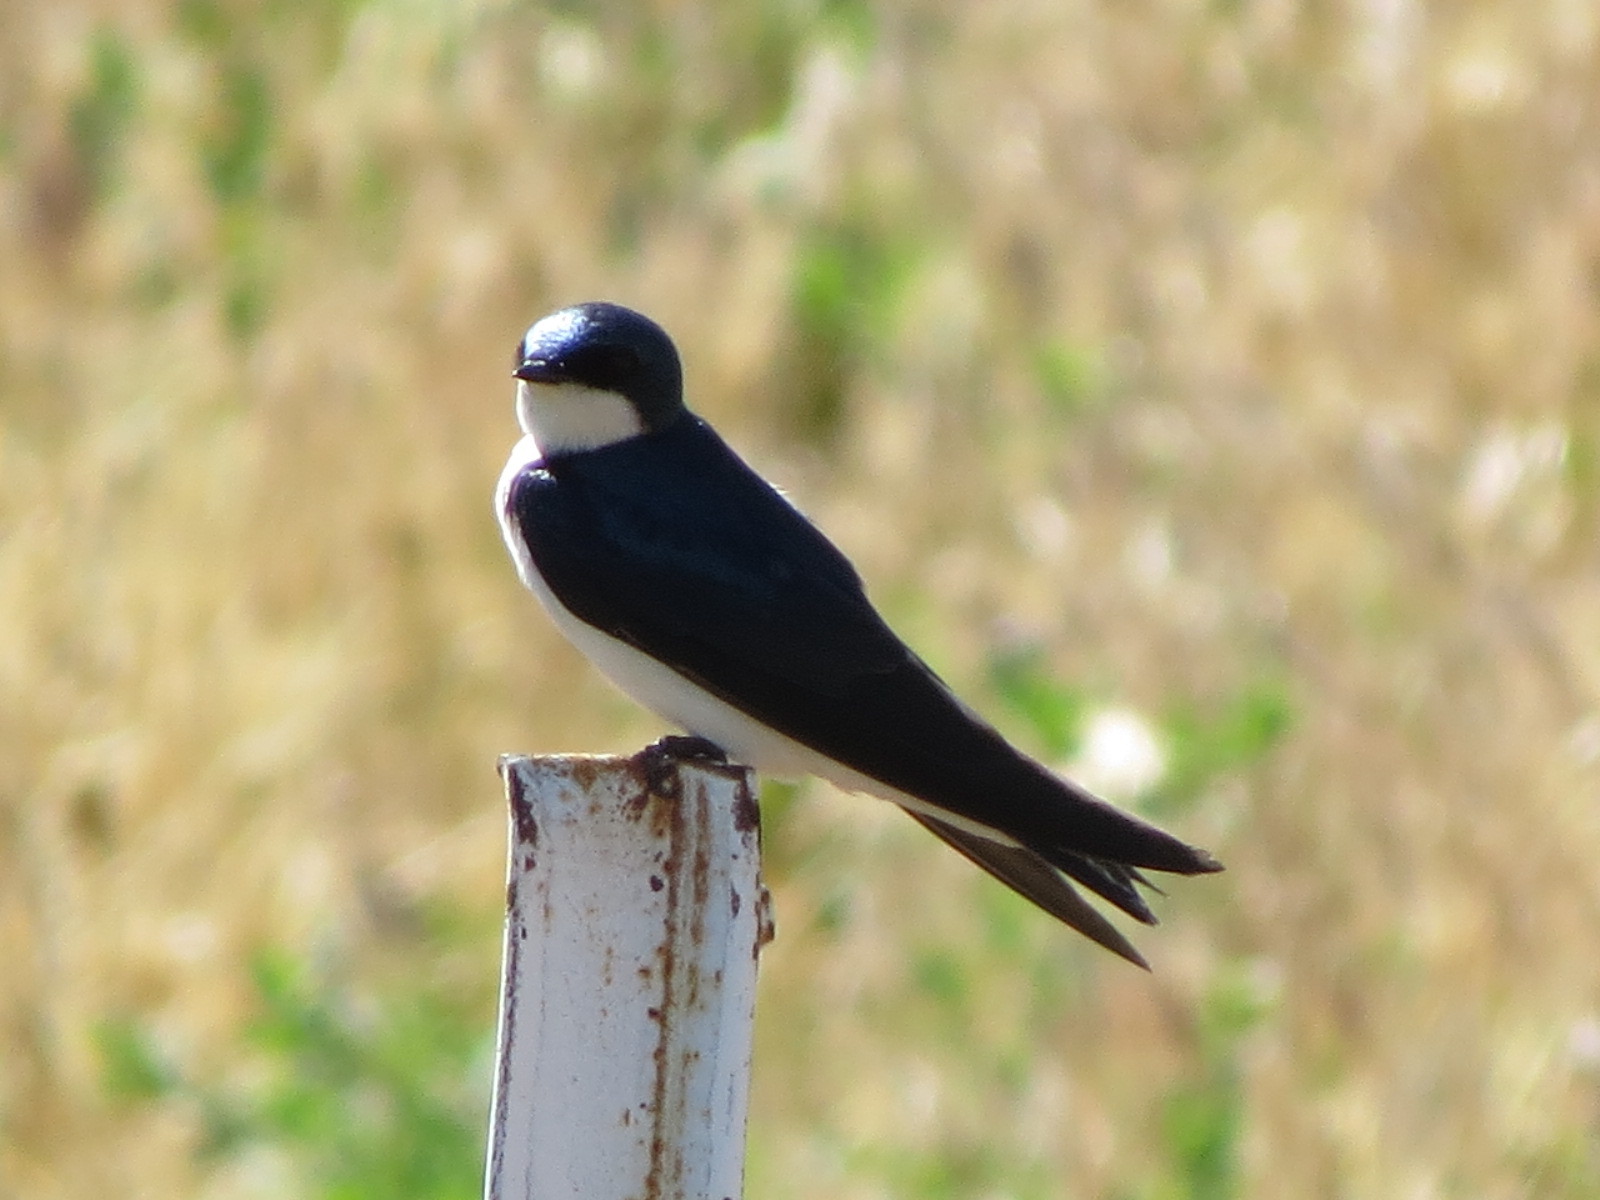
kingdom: Animalia
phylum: Chordata
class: Aves
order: Passeriformes
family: Hirundinidae
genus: Tachycineta
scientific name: Tachycineta bicolor
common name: Tree swallow
